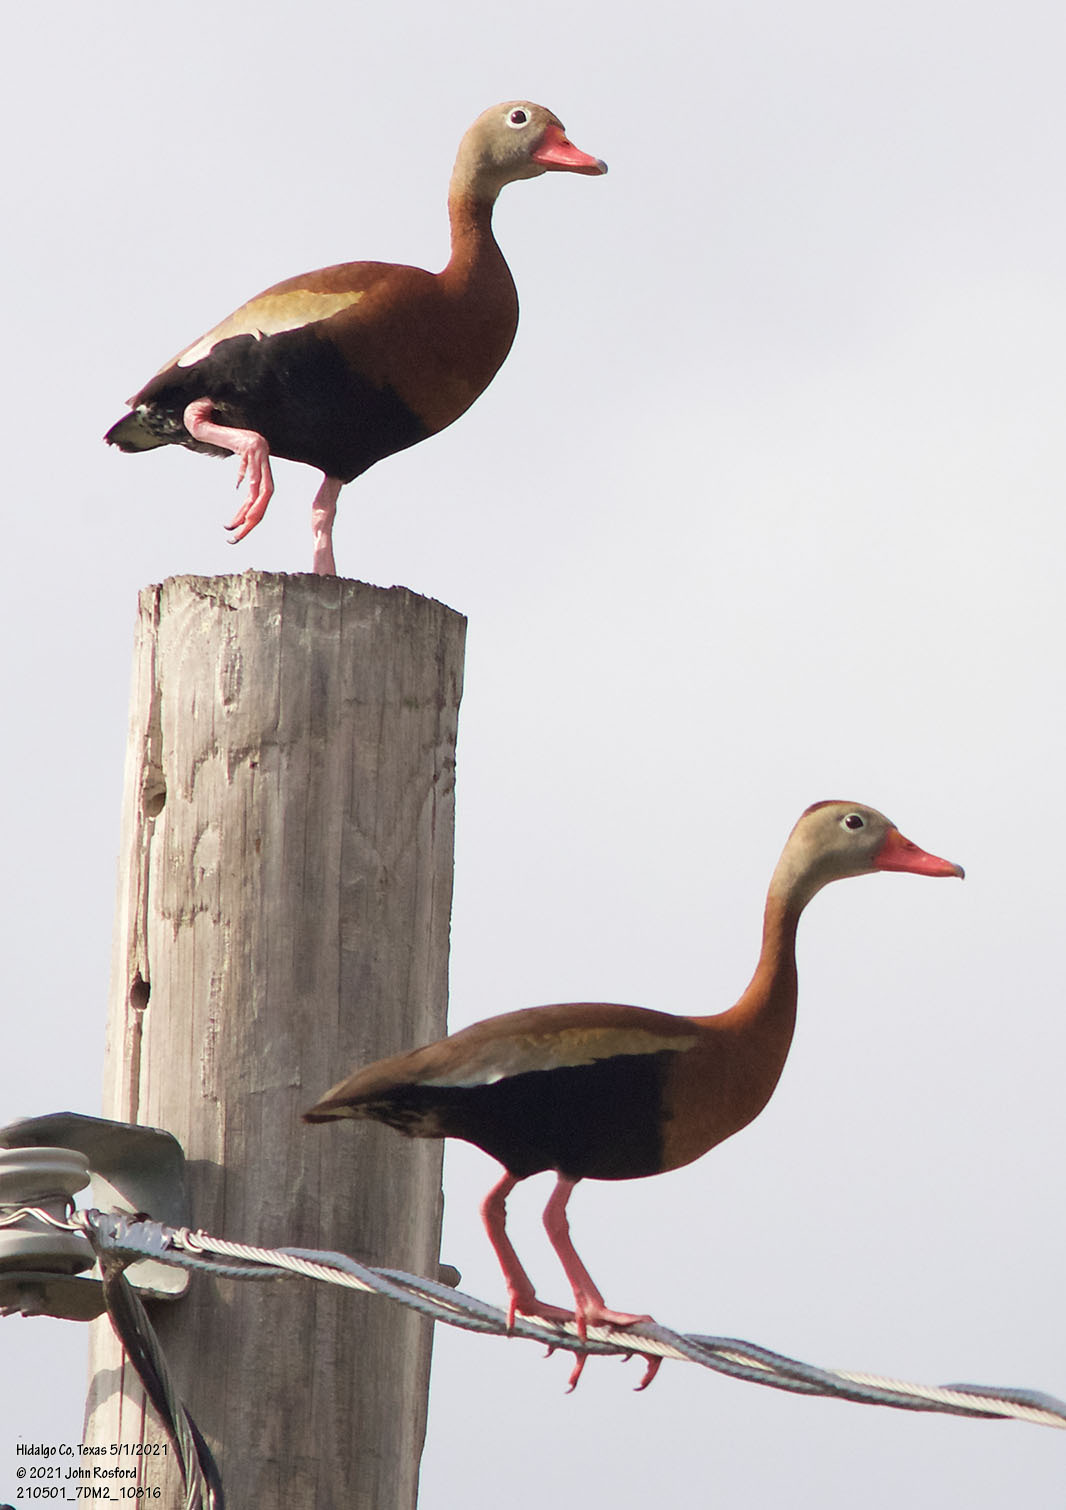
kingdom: Animalia
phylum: Chordata
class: Aves
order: Anseriformes
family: Anatidae
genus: Dendrocygna
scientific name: Dendrocygna autumnalis
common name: Black-bellied whistling duck
